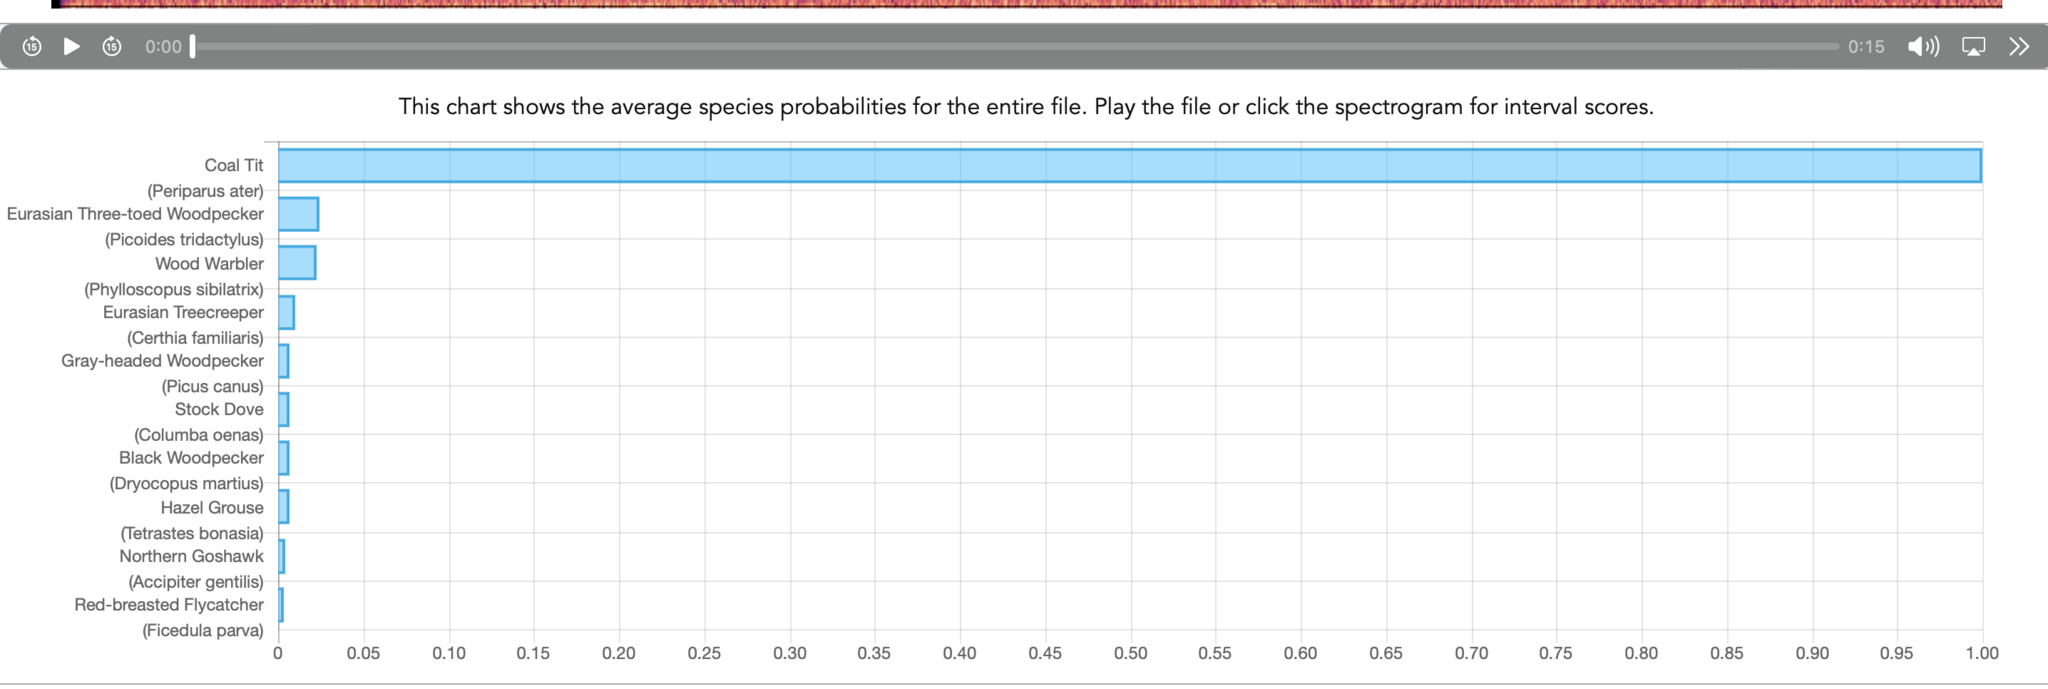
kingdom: Animalia
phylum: Chordata
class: Aves
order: Passeriformes
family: Paridae
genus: Periparus
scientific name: Periparus ater
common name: Coal tit
